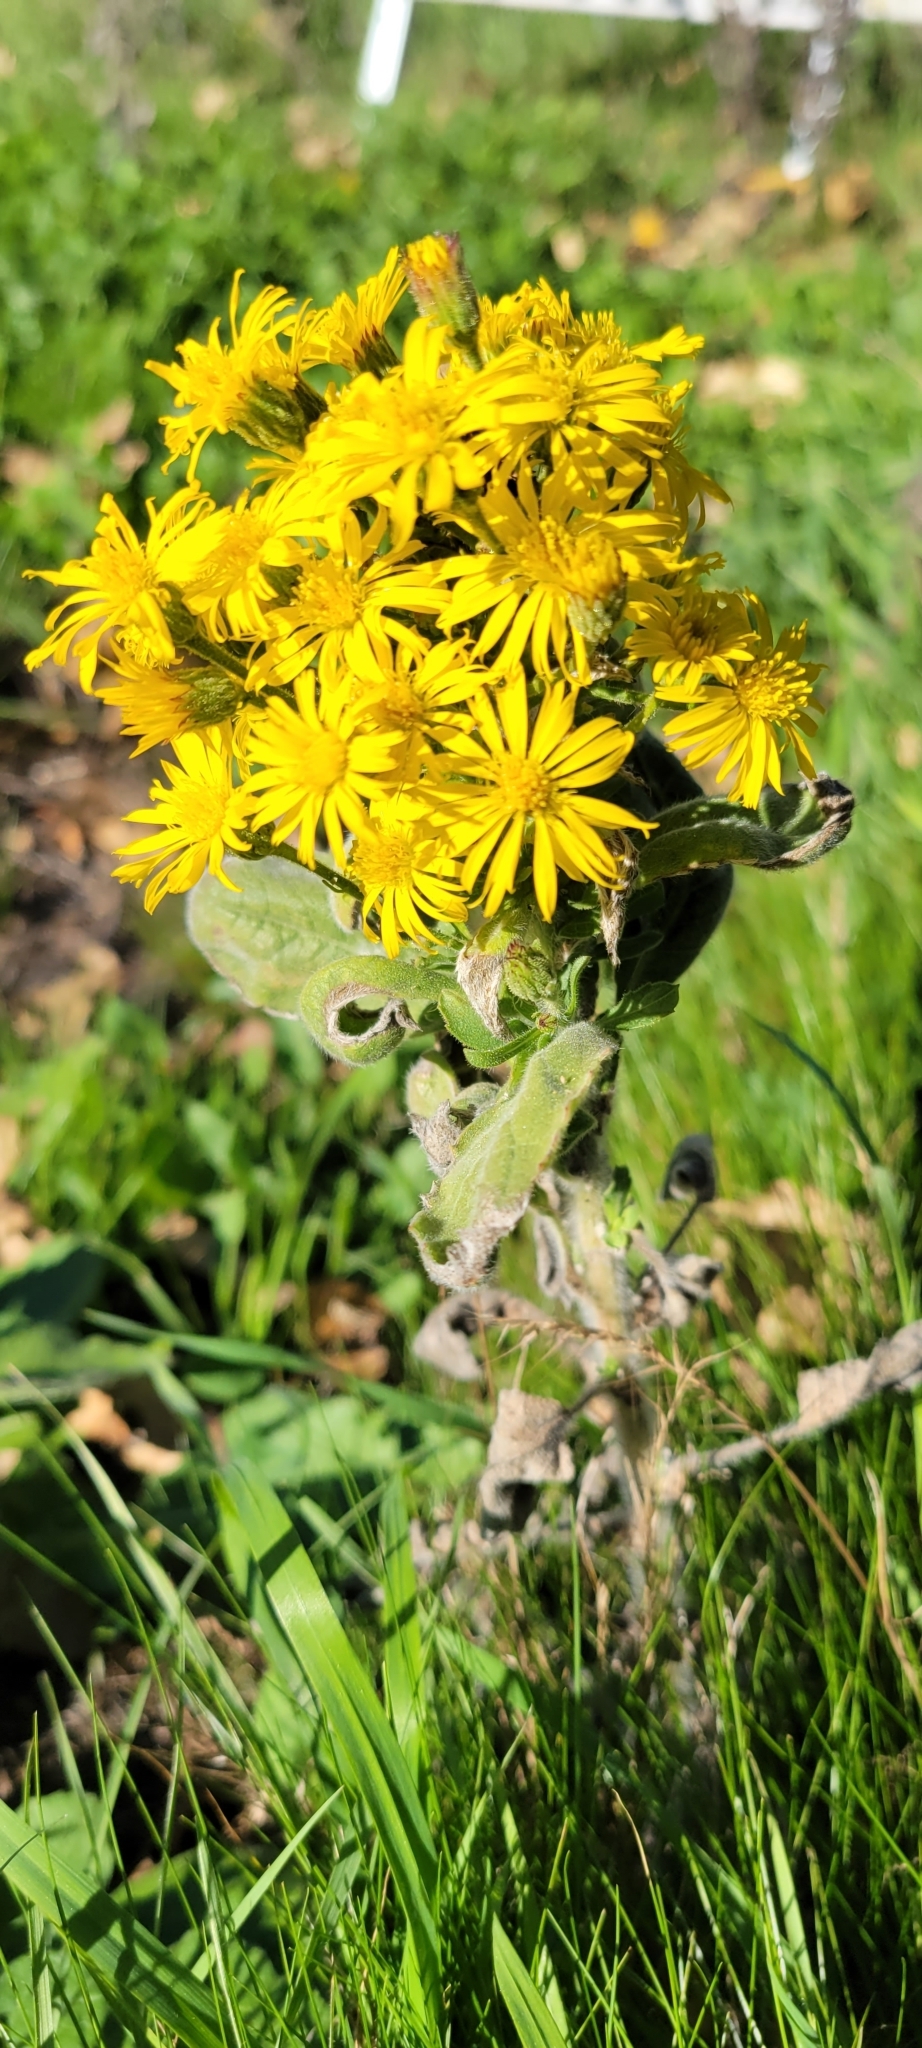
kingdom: Plantae
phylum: Tracheophyta
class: Magnoliopsida
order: Asterales
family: Asteraceae
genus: Heterotheca
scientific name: Heterotheca grandiflora
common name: Telegraphweed
